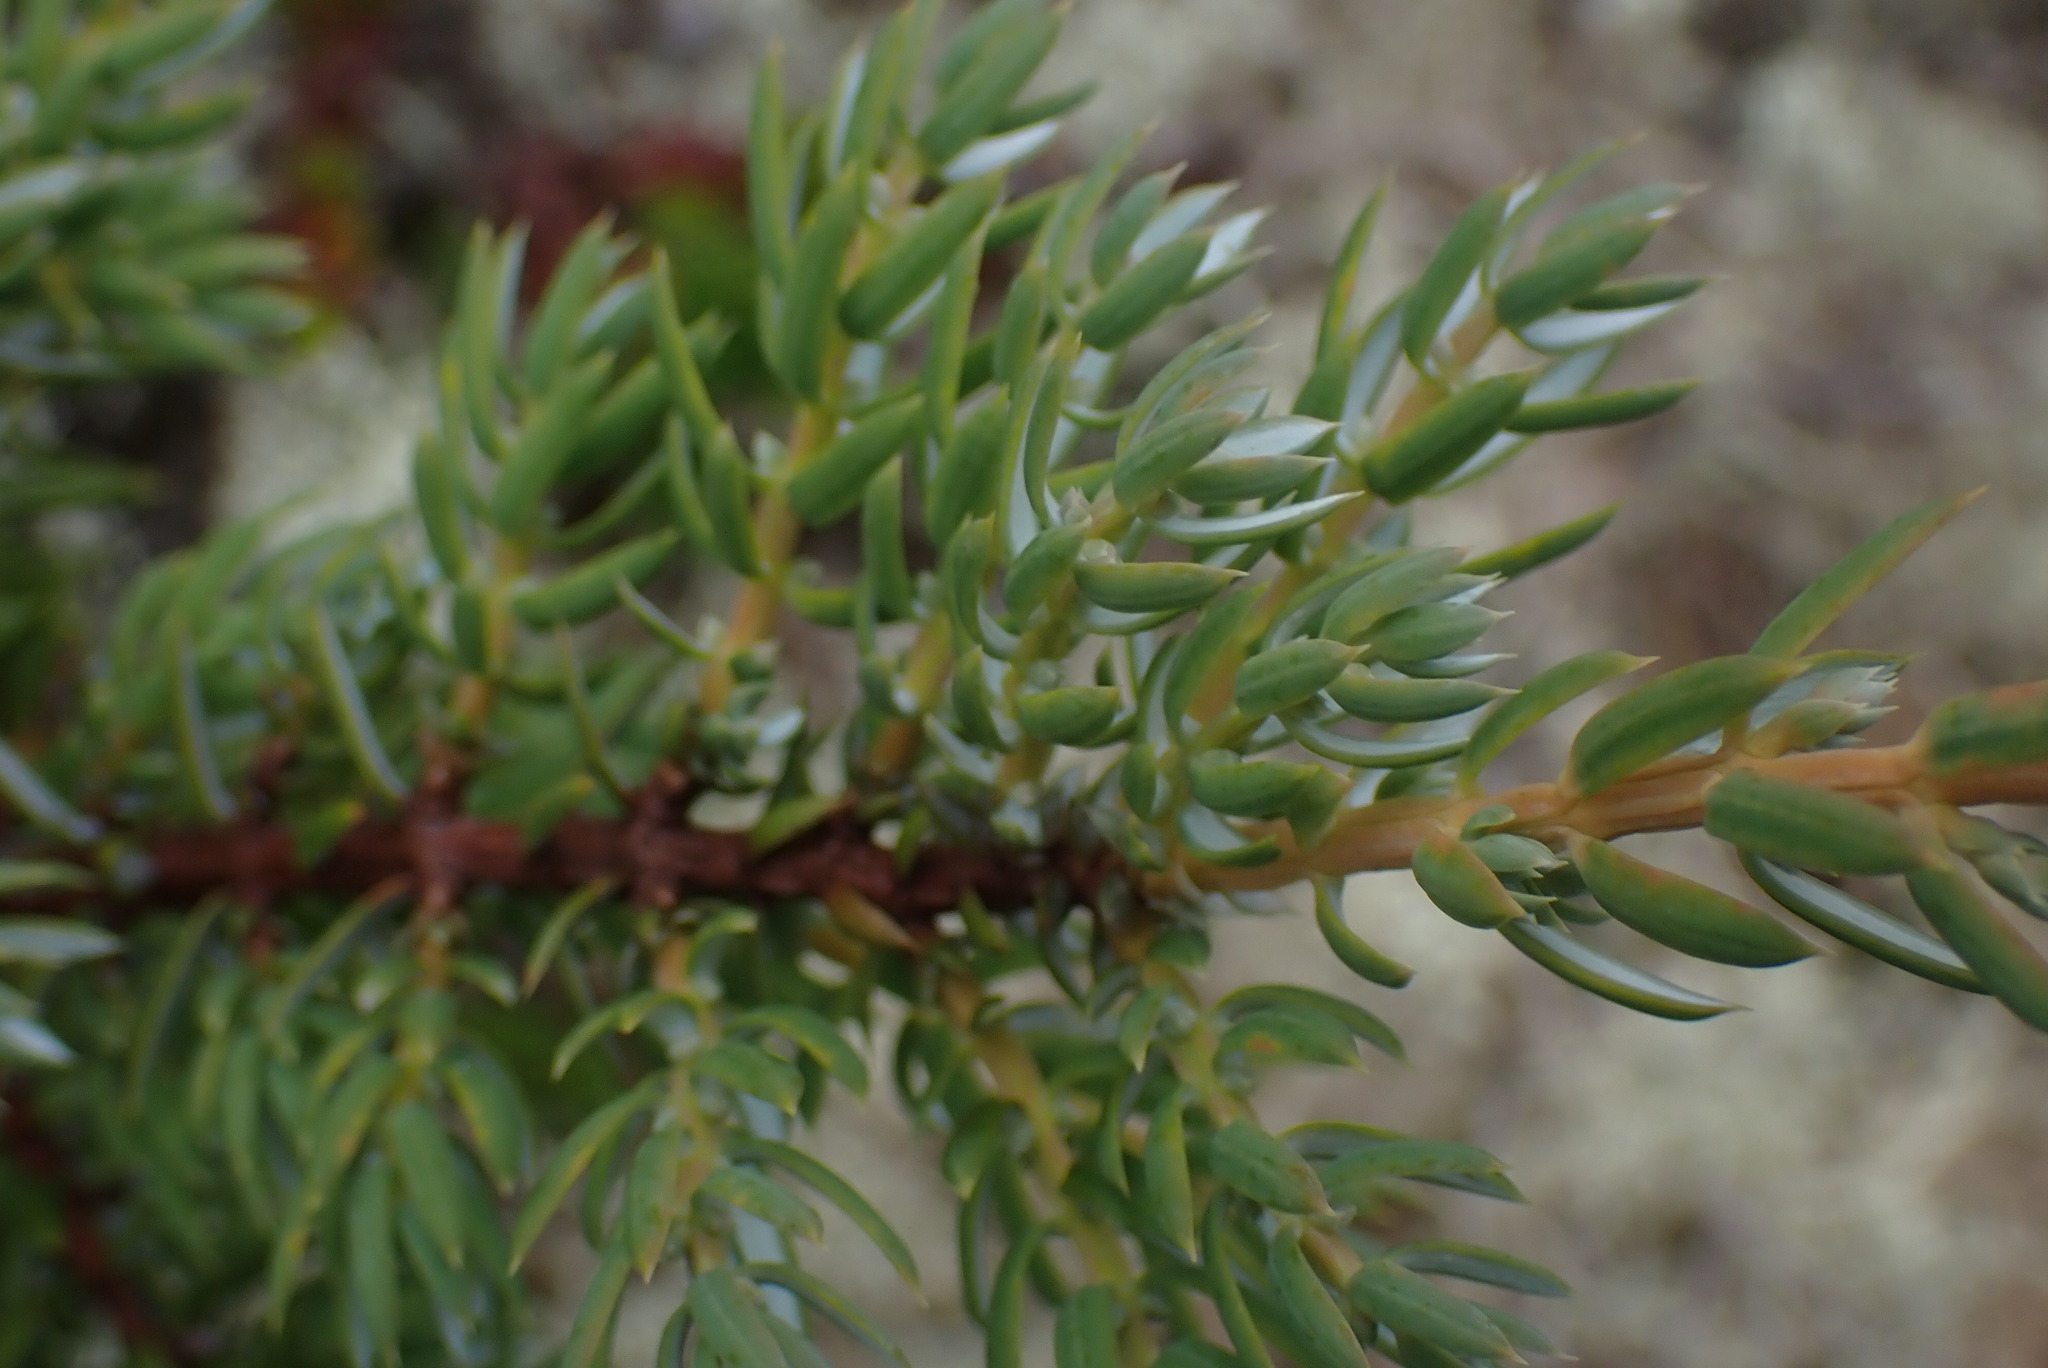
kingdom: Plantae
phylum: Tracheophyta
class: Pinopsida
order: Pinales
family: Cupressaceae
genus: Juniperus
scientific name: Juniperus communis
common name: Common juniper
